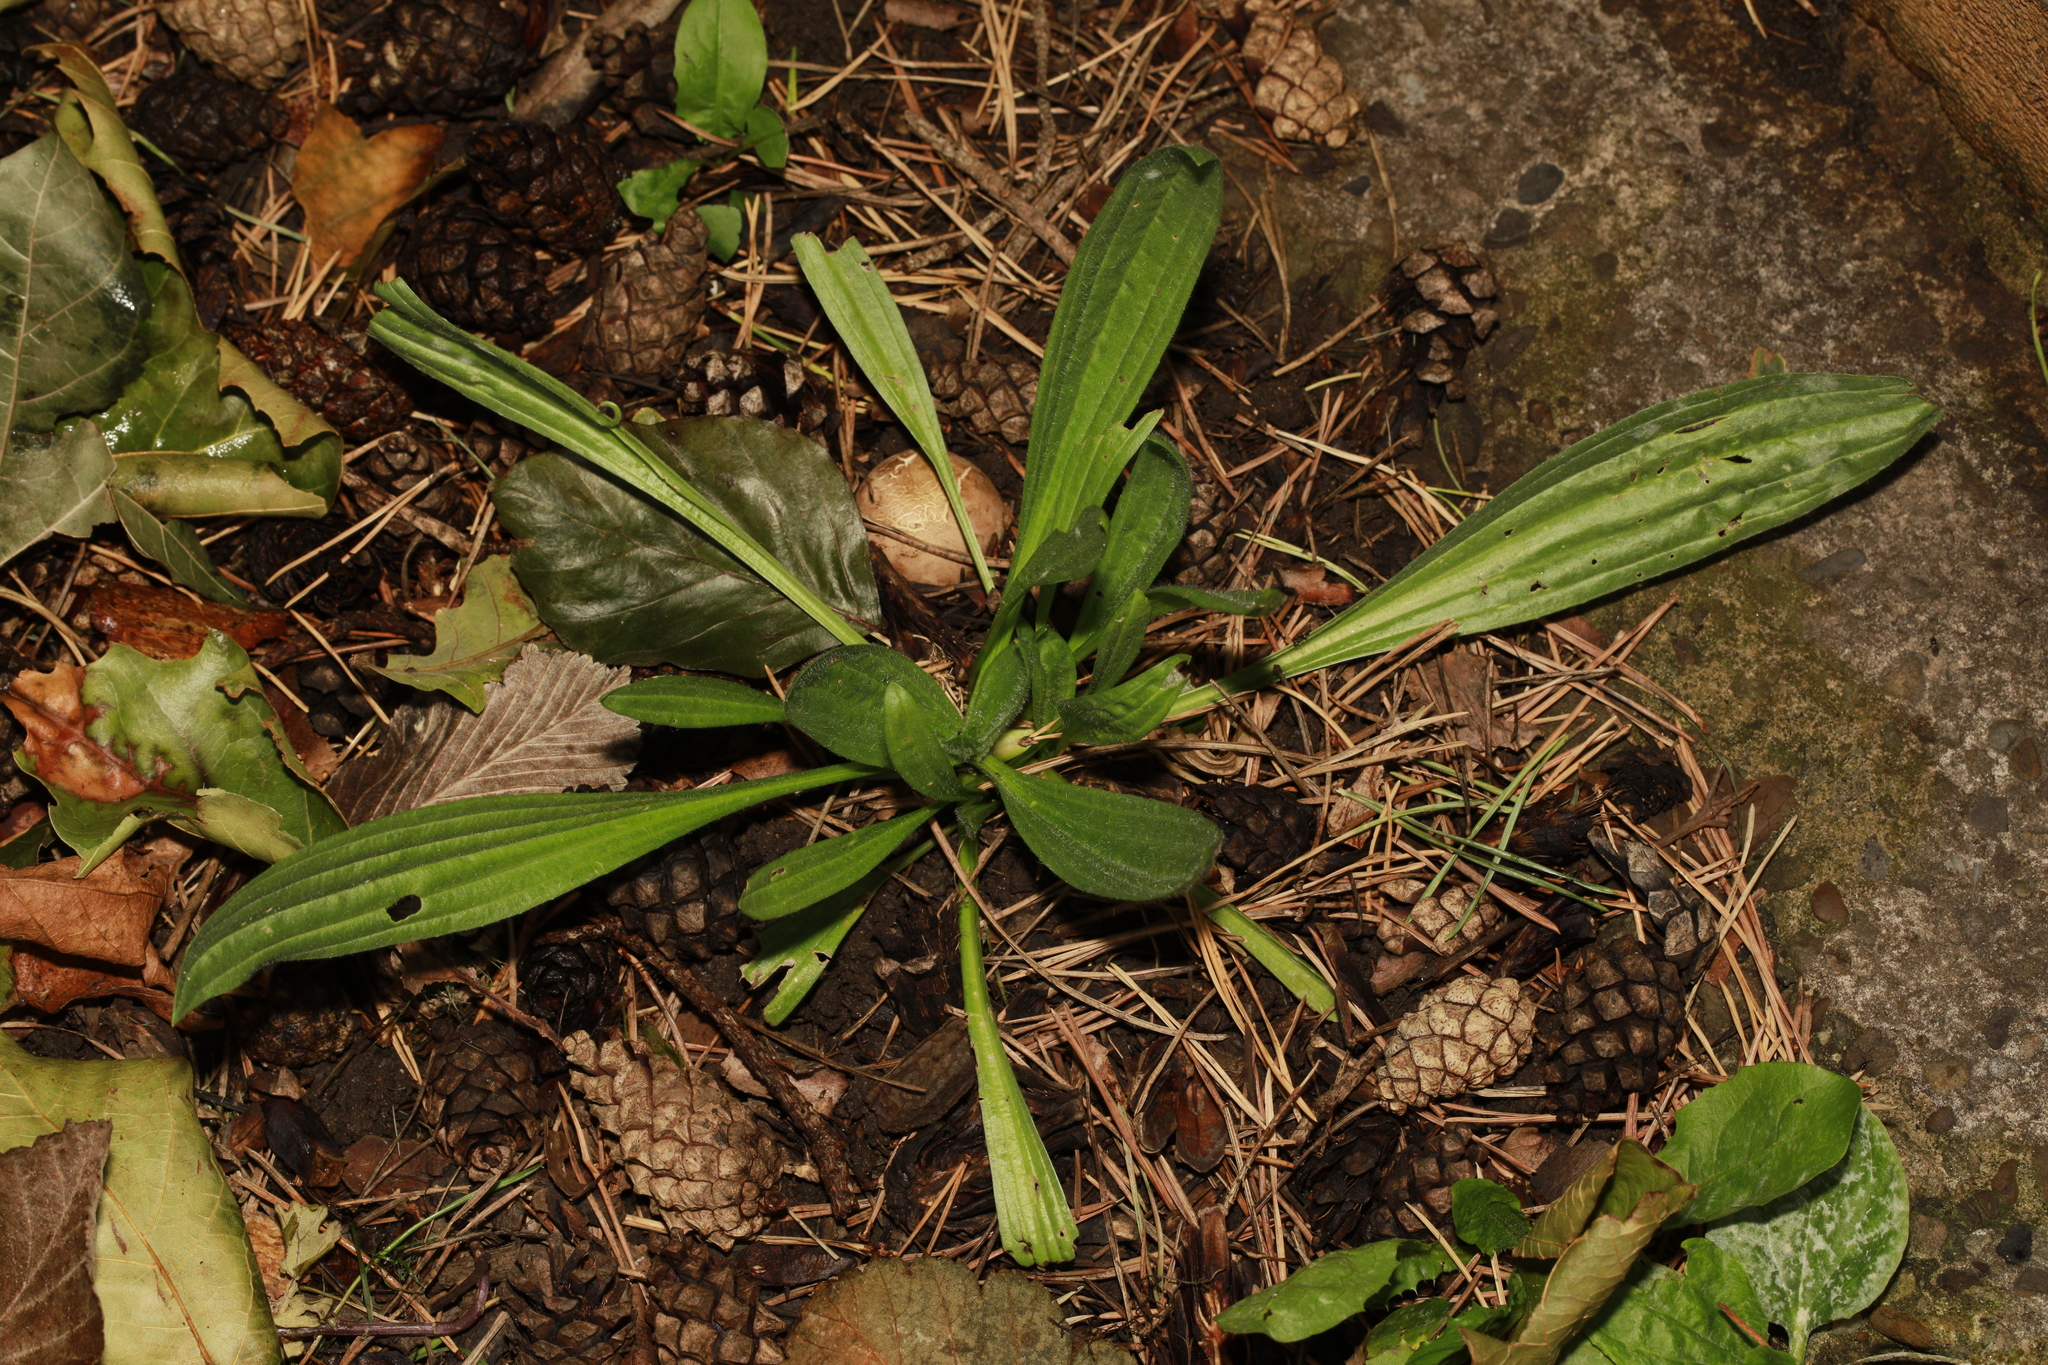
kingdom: Plantae
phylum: Tracheophyta
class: Magnoliopsida
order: Lamiales
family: Plantaginaceae
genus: Plantago
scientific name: Plantago lanceolata
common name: Ribwort plantain
